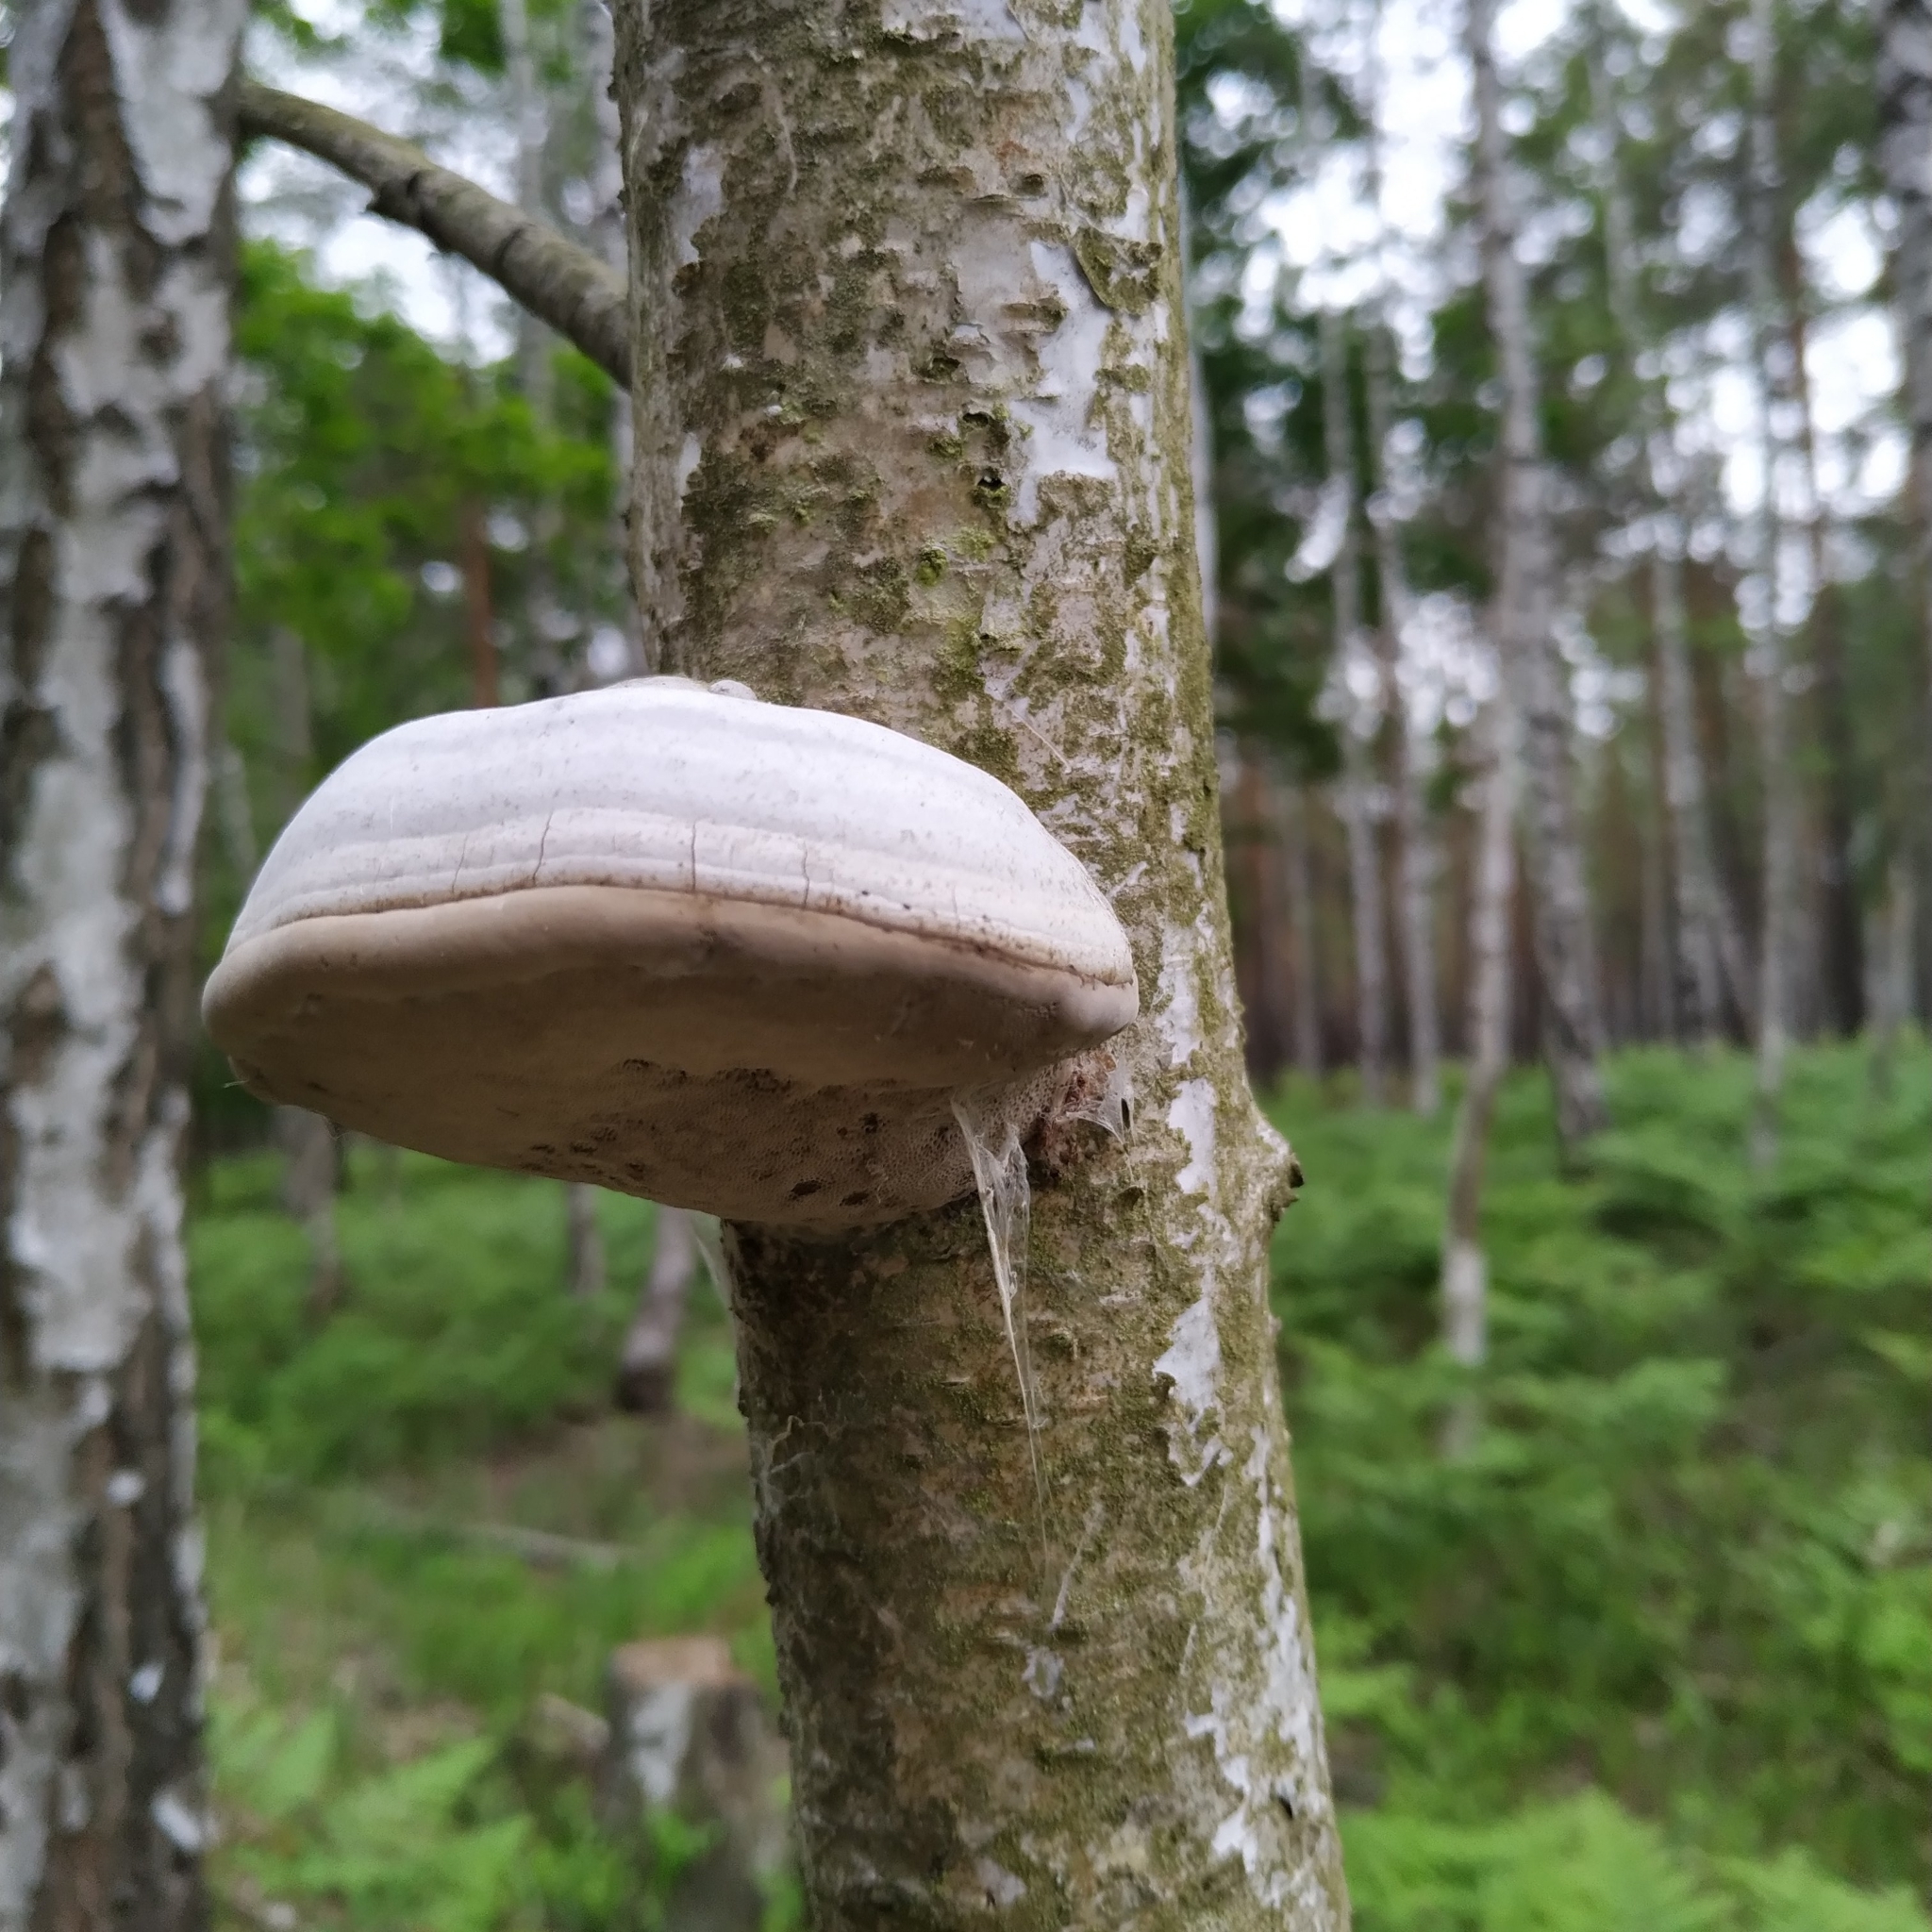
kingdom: Fungi
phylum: Basidiomycota
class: Agaricomycetes
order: Polyporales
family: Polyporaceae
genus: Fomes
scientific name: Fomes fomentarius
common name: Hoof fungus
